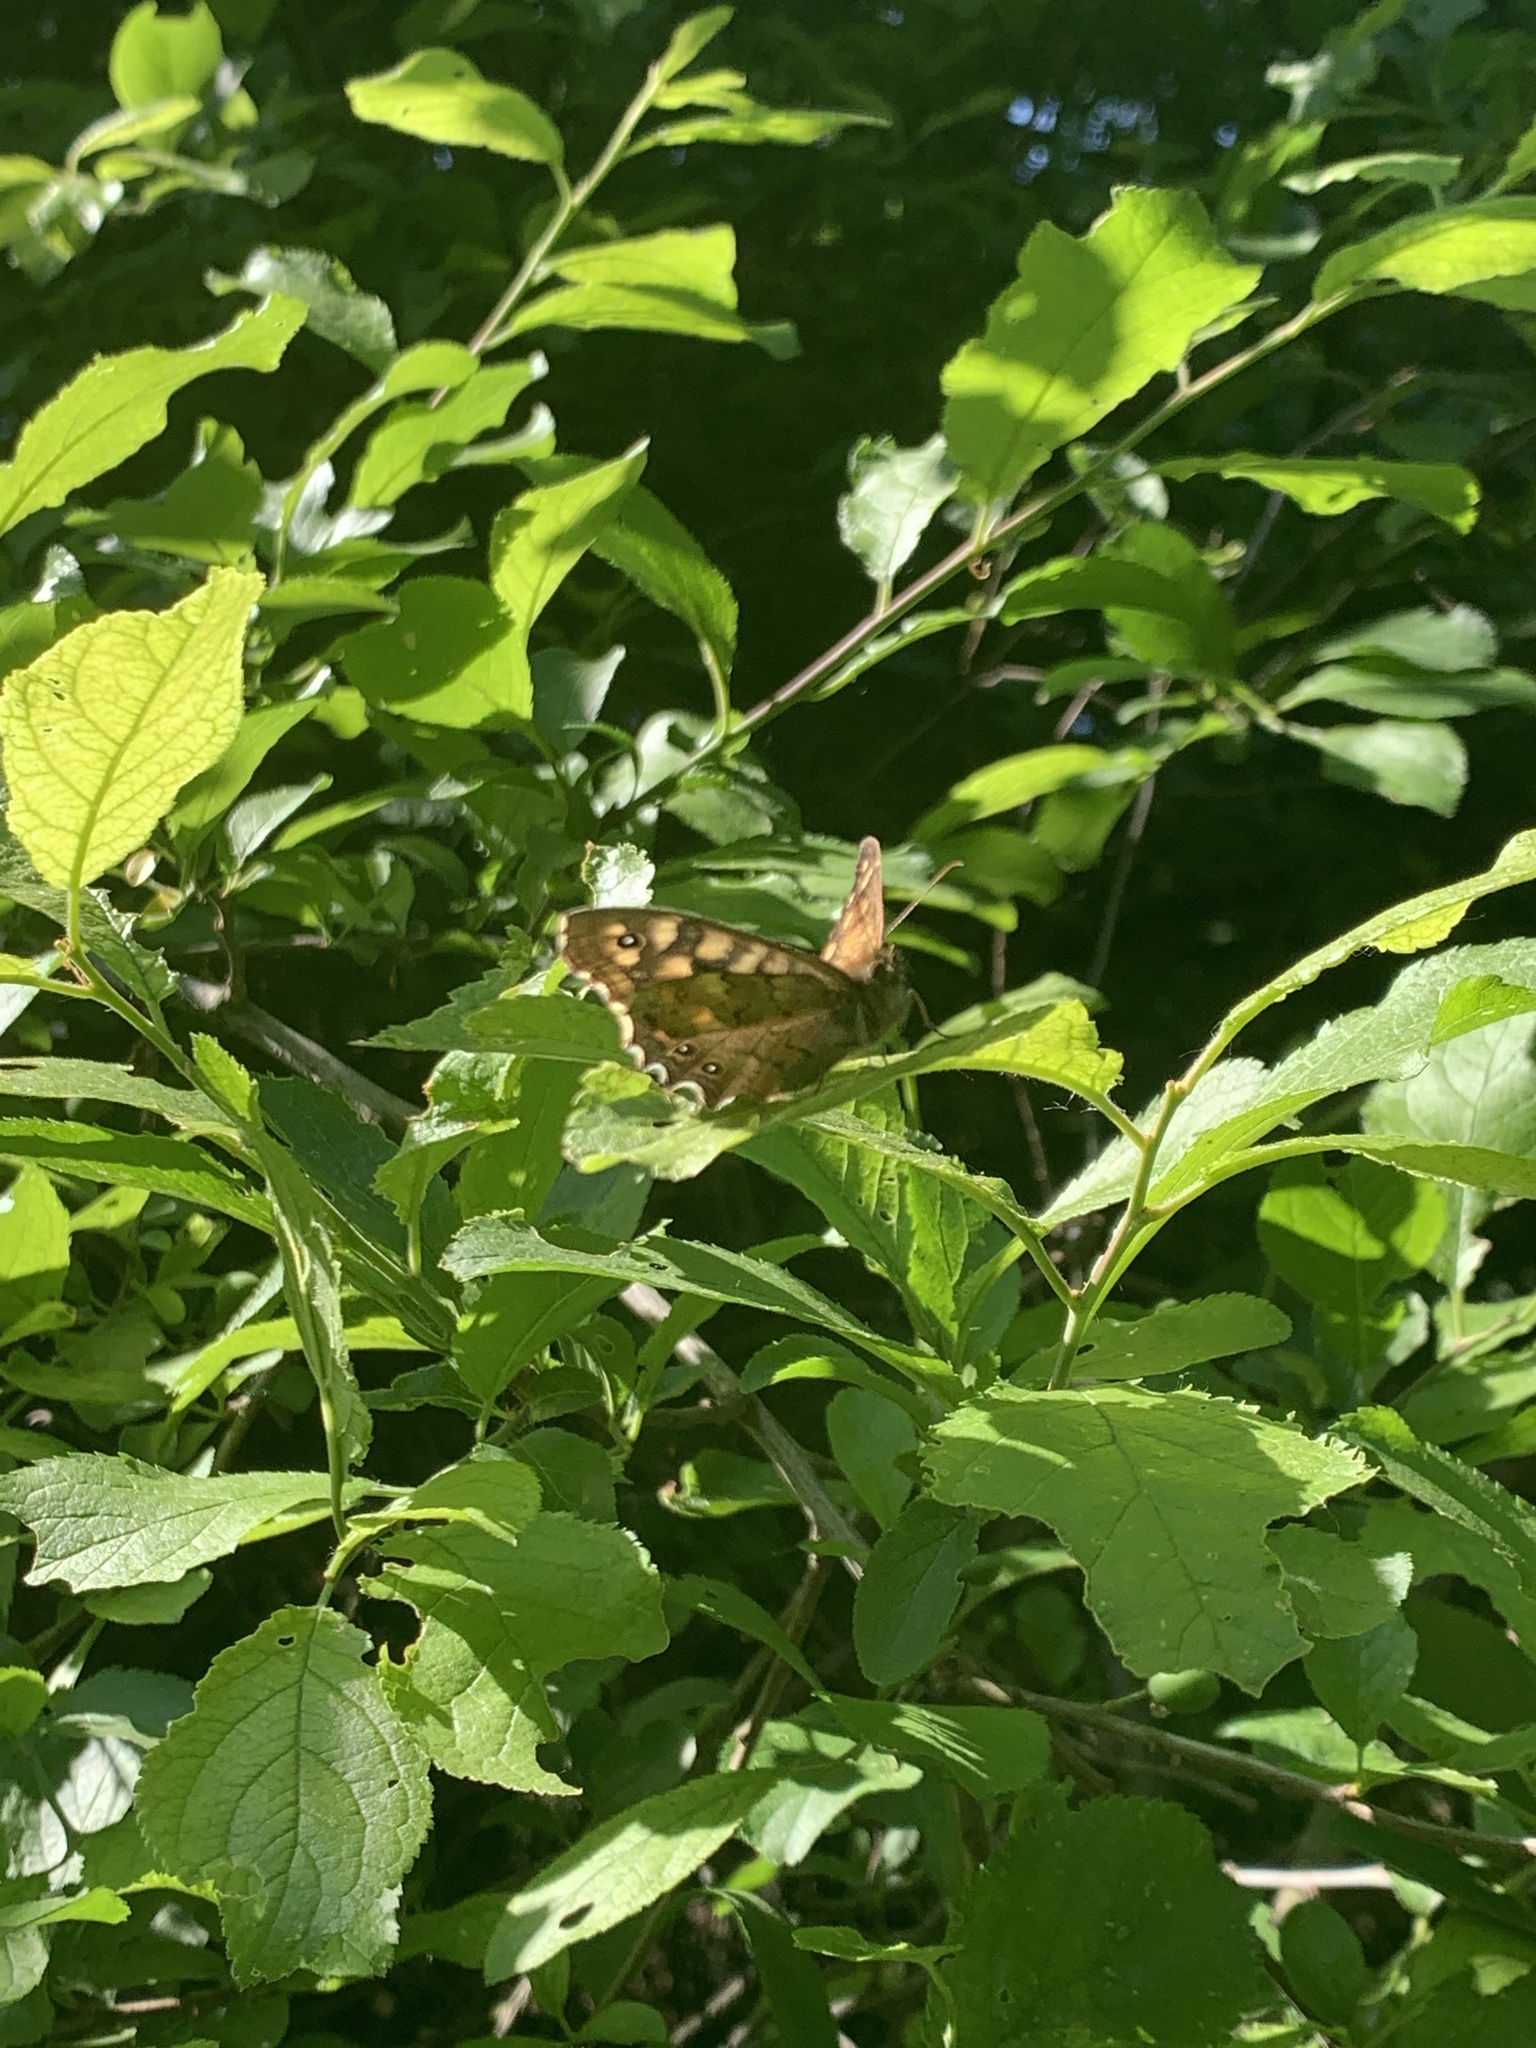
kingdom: Animalia
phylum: Arthropoda
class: Insecta
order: Lepidoptera
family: Nymphalidae
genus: Pararge
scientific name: Pararge aegeria
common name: Speckled wood
